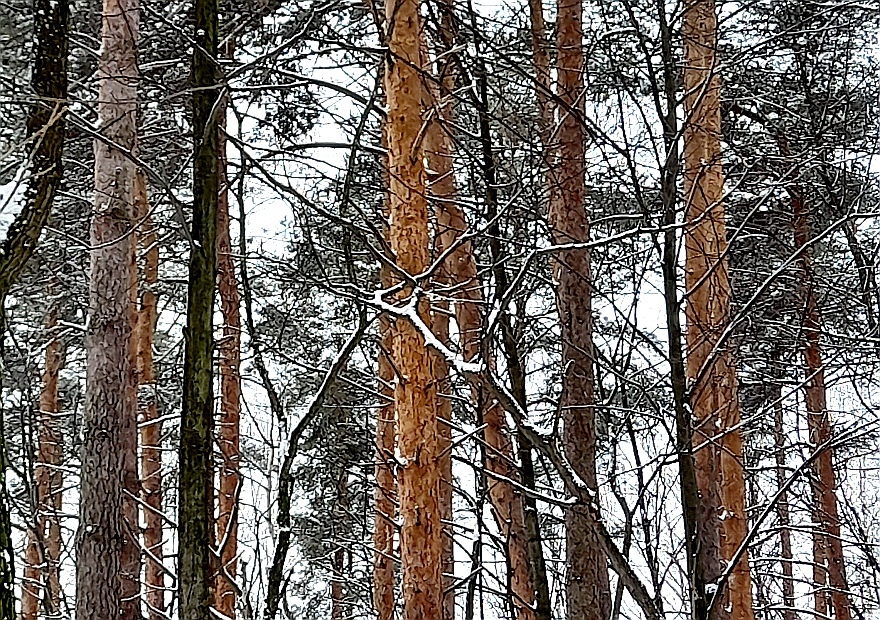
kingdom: Plantae
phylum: Tracheophyta
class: Pinopsida
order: Pinales
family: Pinaceae
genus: Pinus
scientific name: Pinus sylvestris
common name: Scots pine
